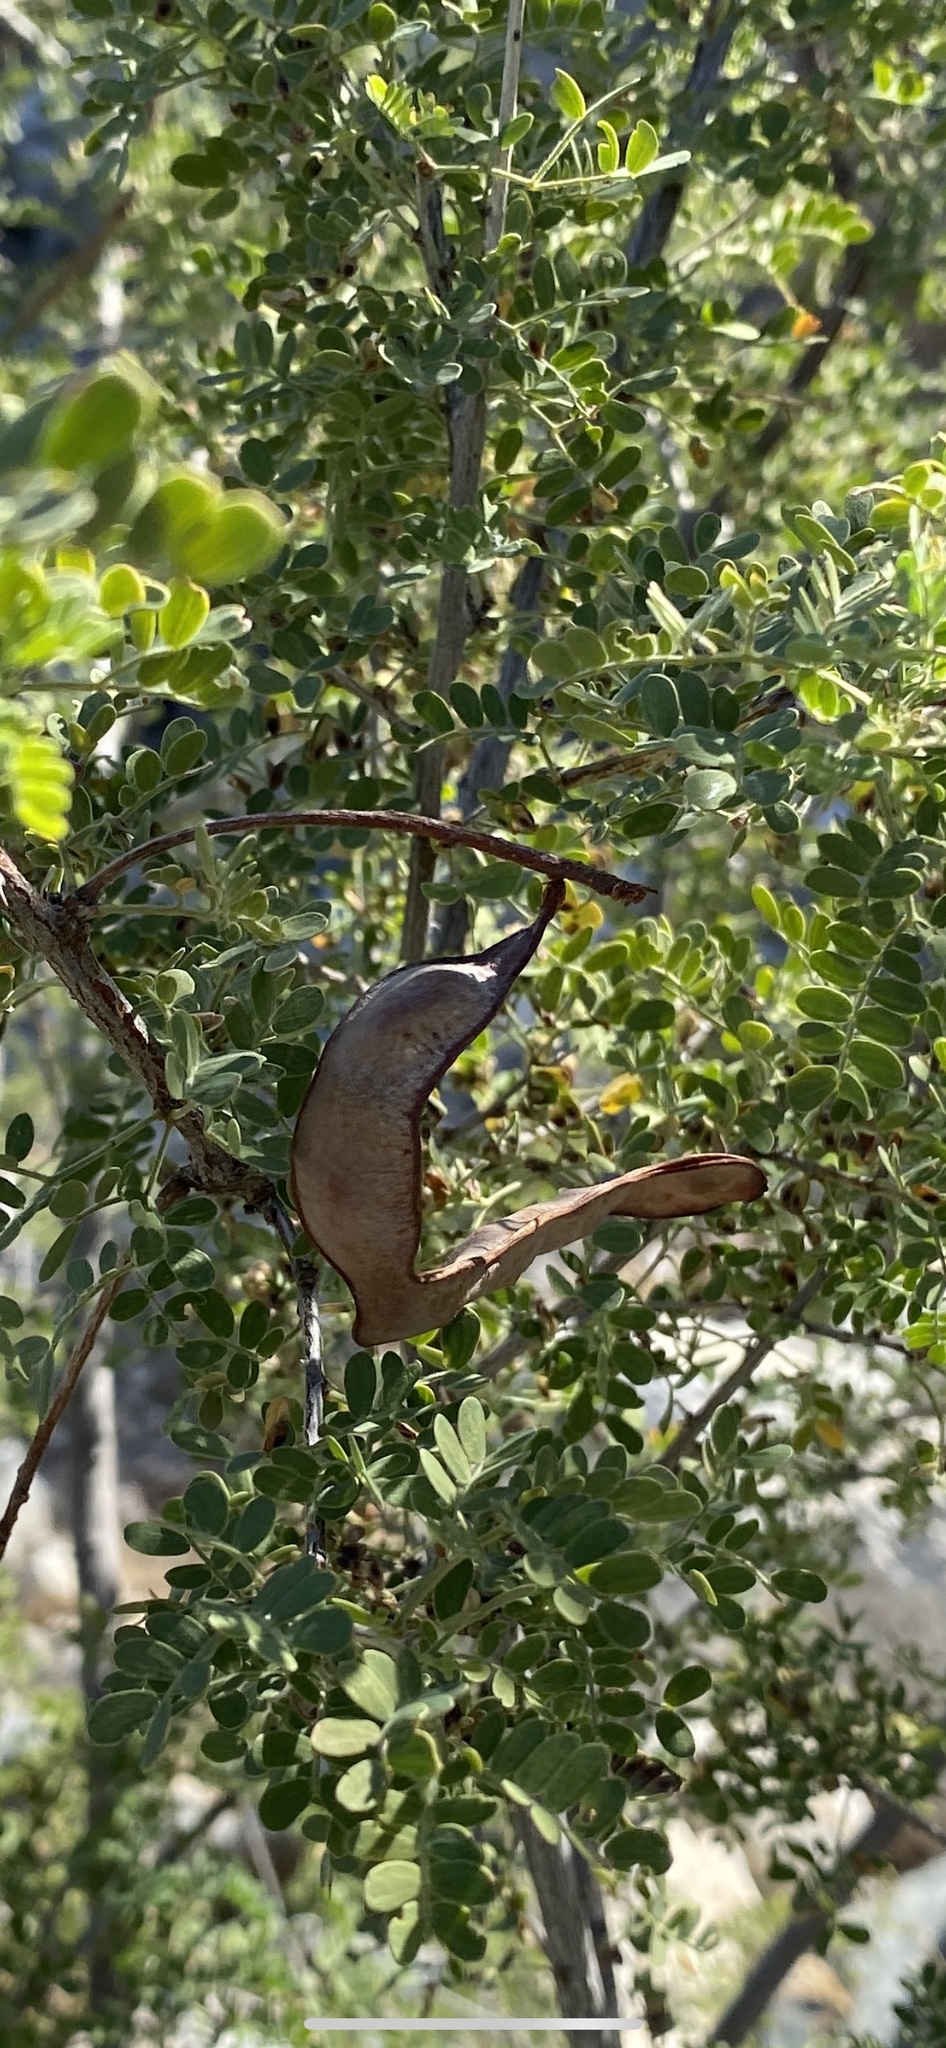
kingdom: Plantae
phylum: Tracheophyta
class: Magnoliopsida
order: Fabales
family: Fabaceae
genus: Senegalia
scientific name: Senegalia greggii
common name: Texas-mimosa
